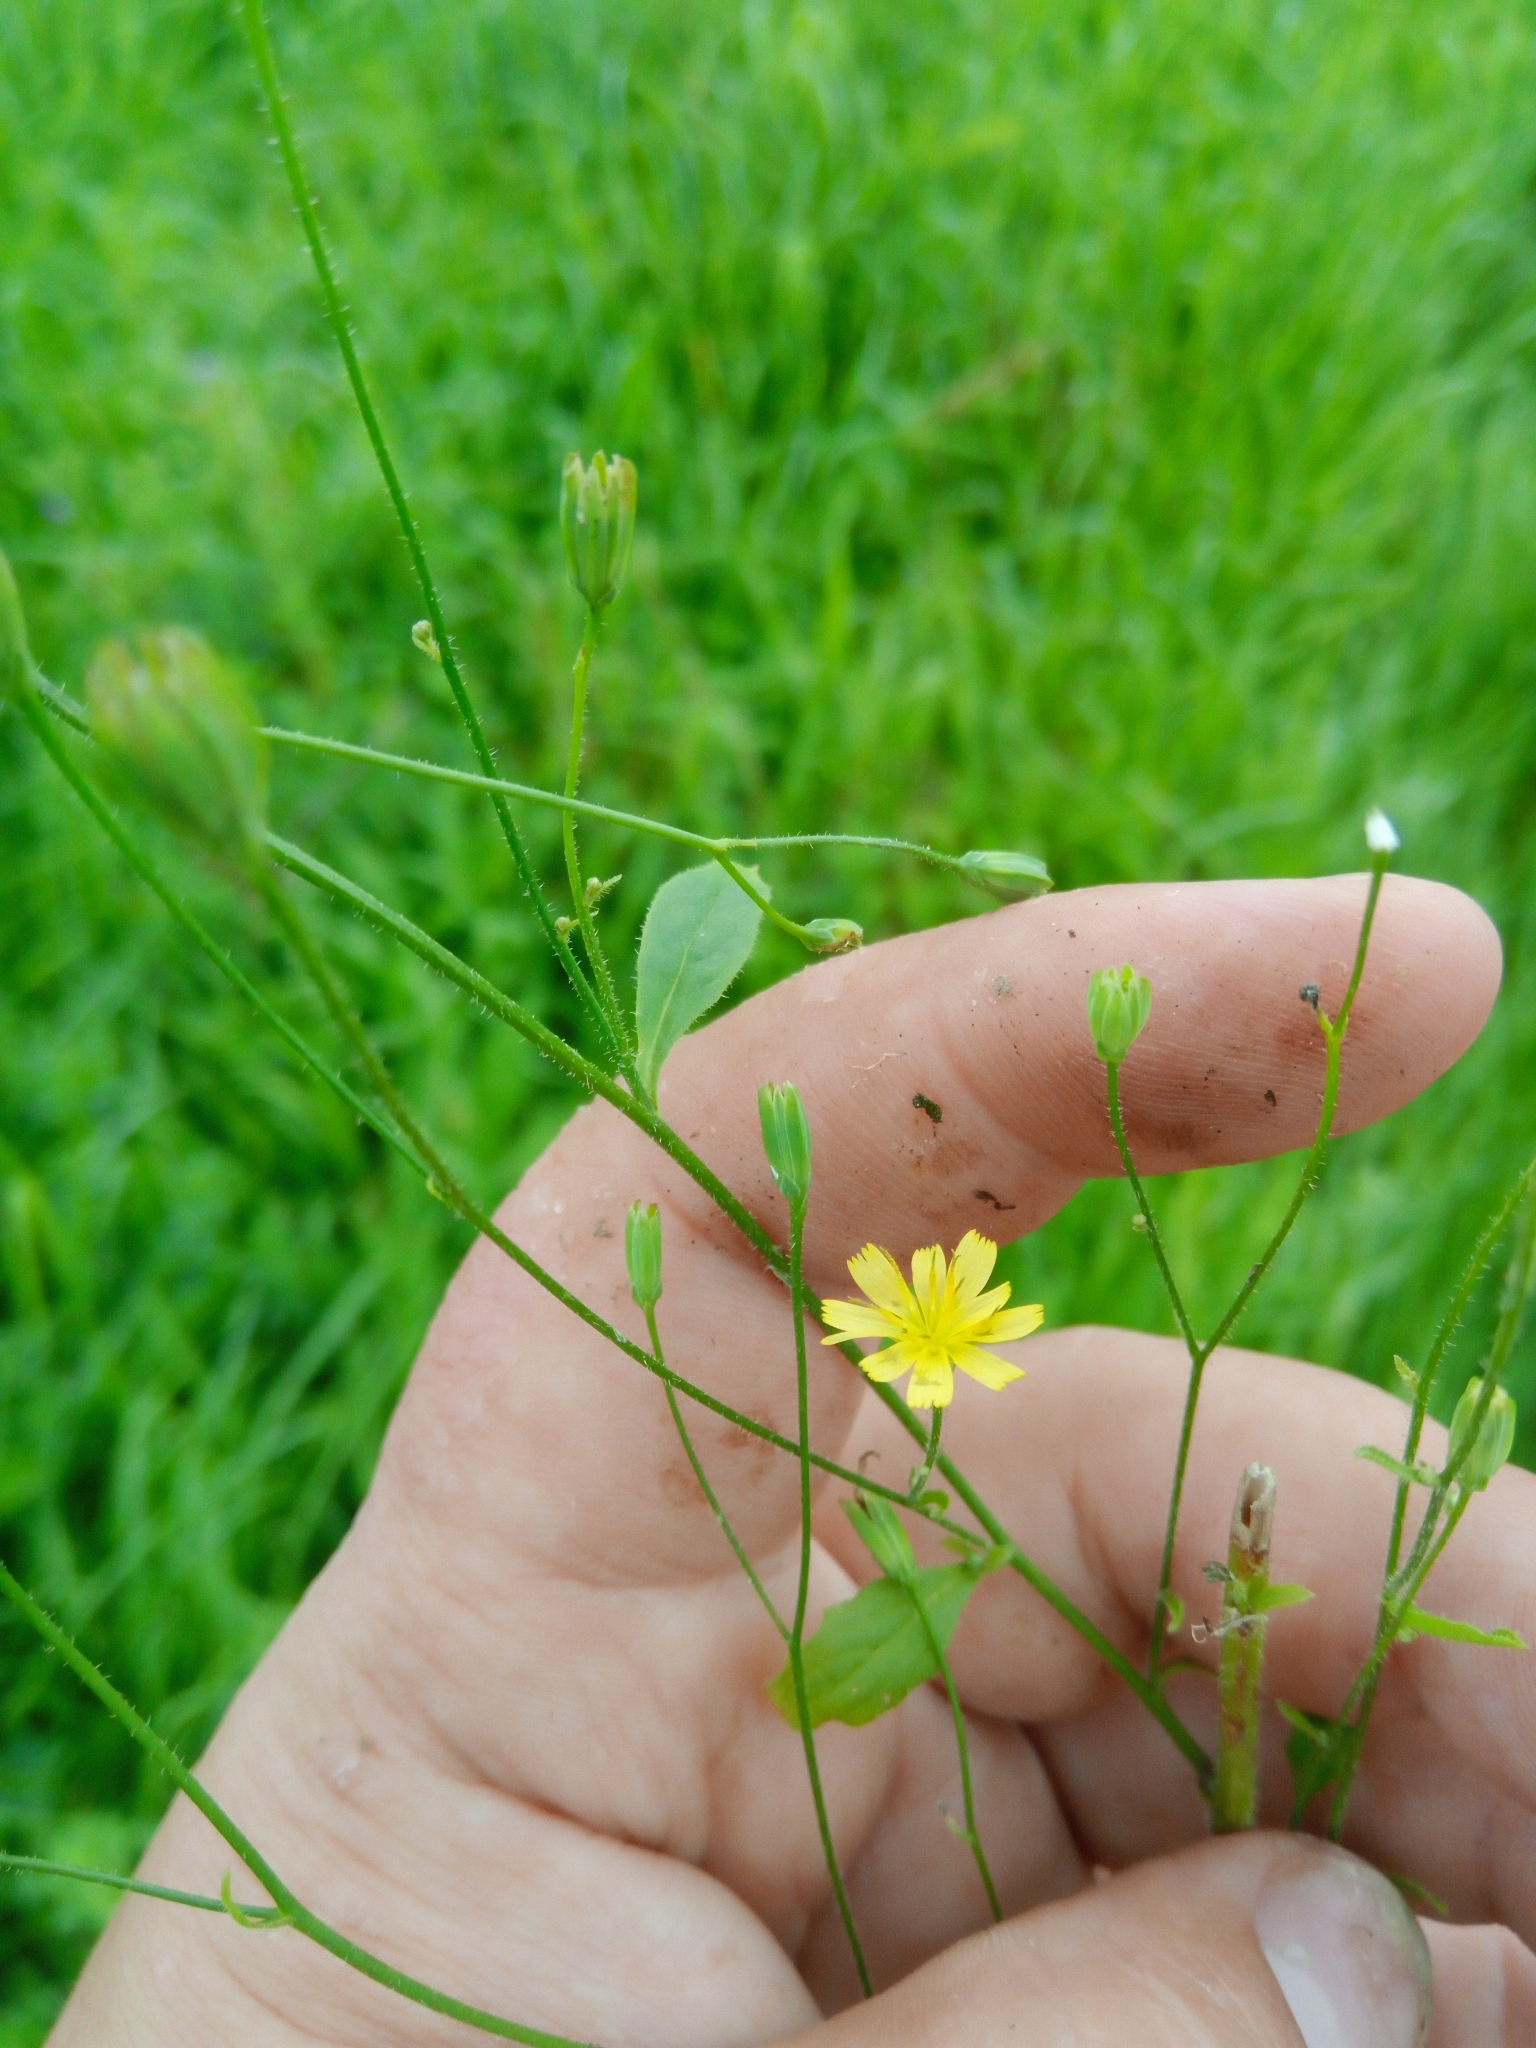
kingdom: Plantae
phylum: Tracheophyta
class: Magnoliopsida
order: Asterales
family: Asteraceae
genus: Lapsana
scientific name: Lapsana communis
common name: Nipplewort
